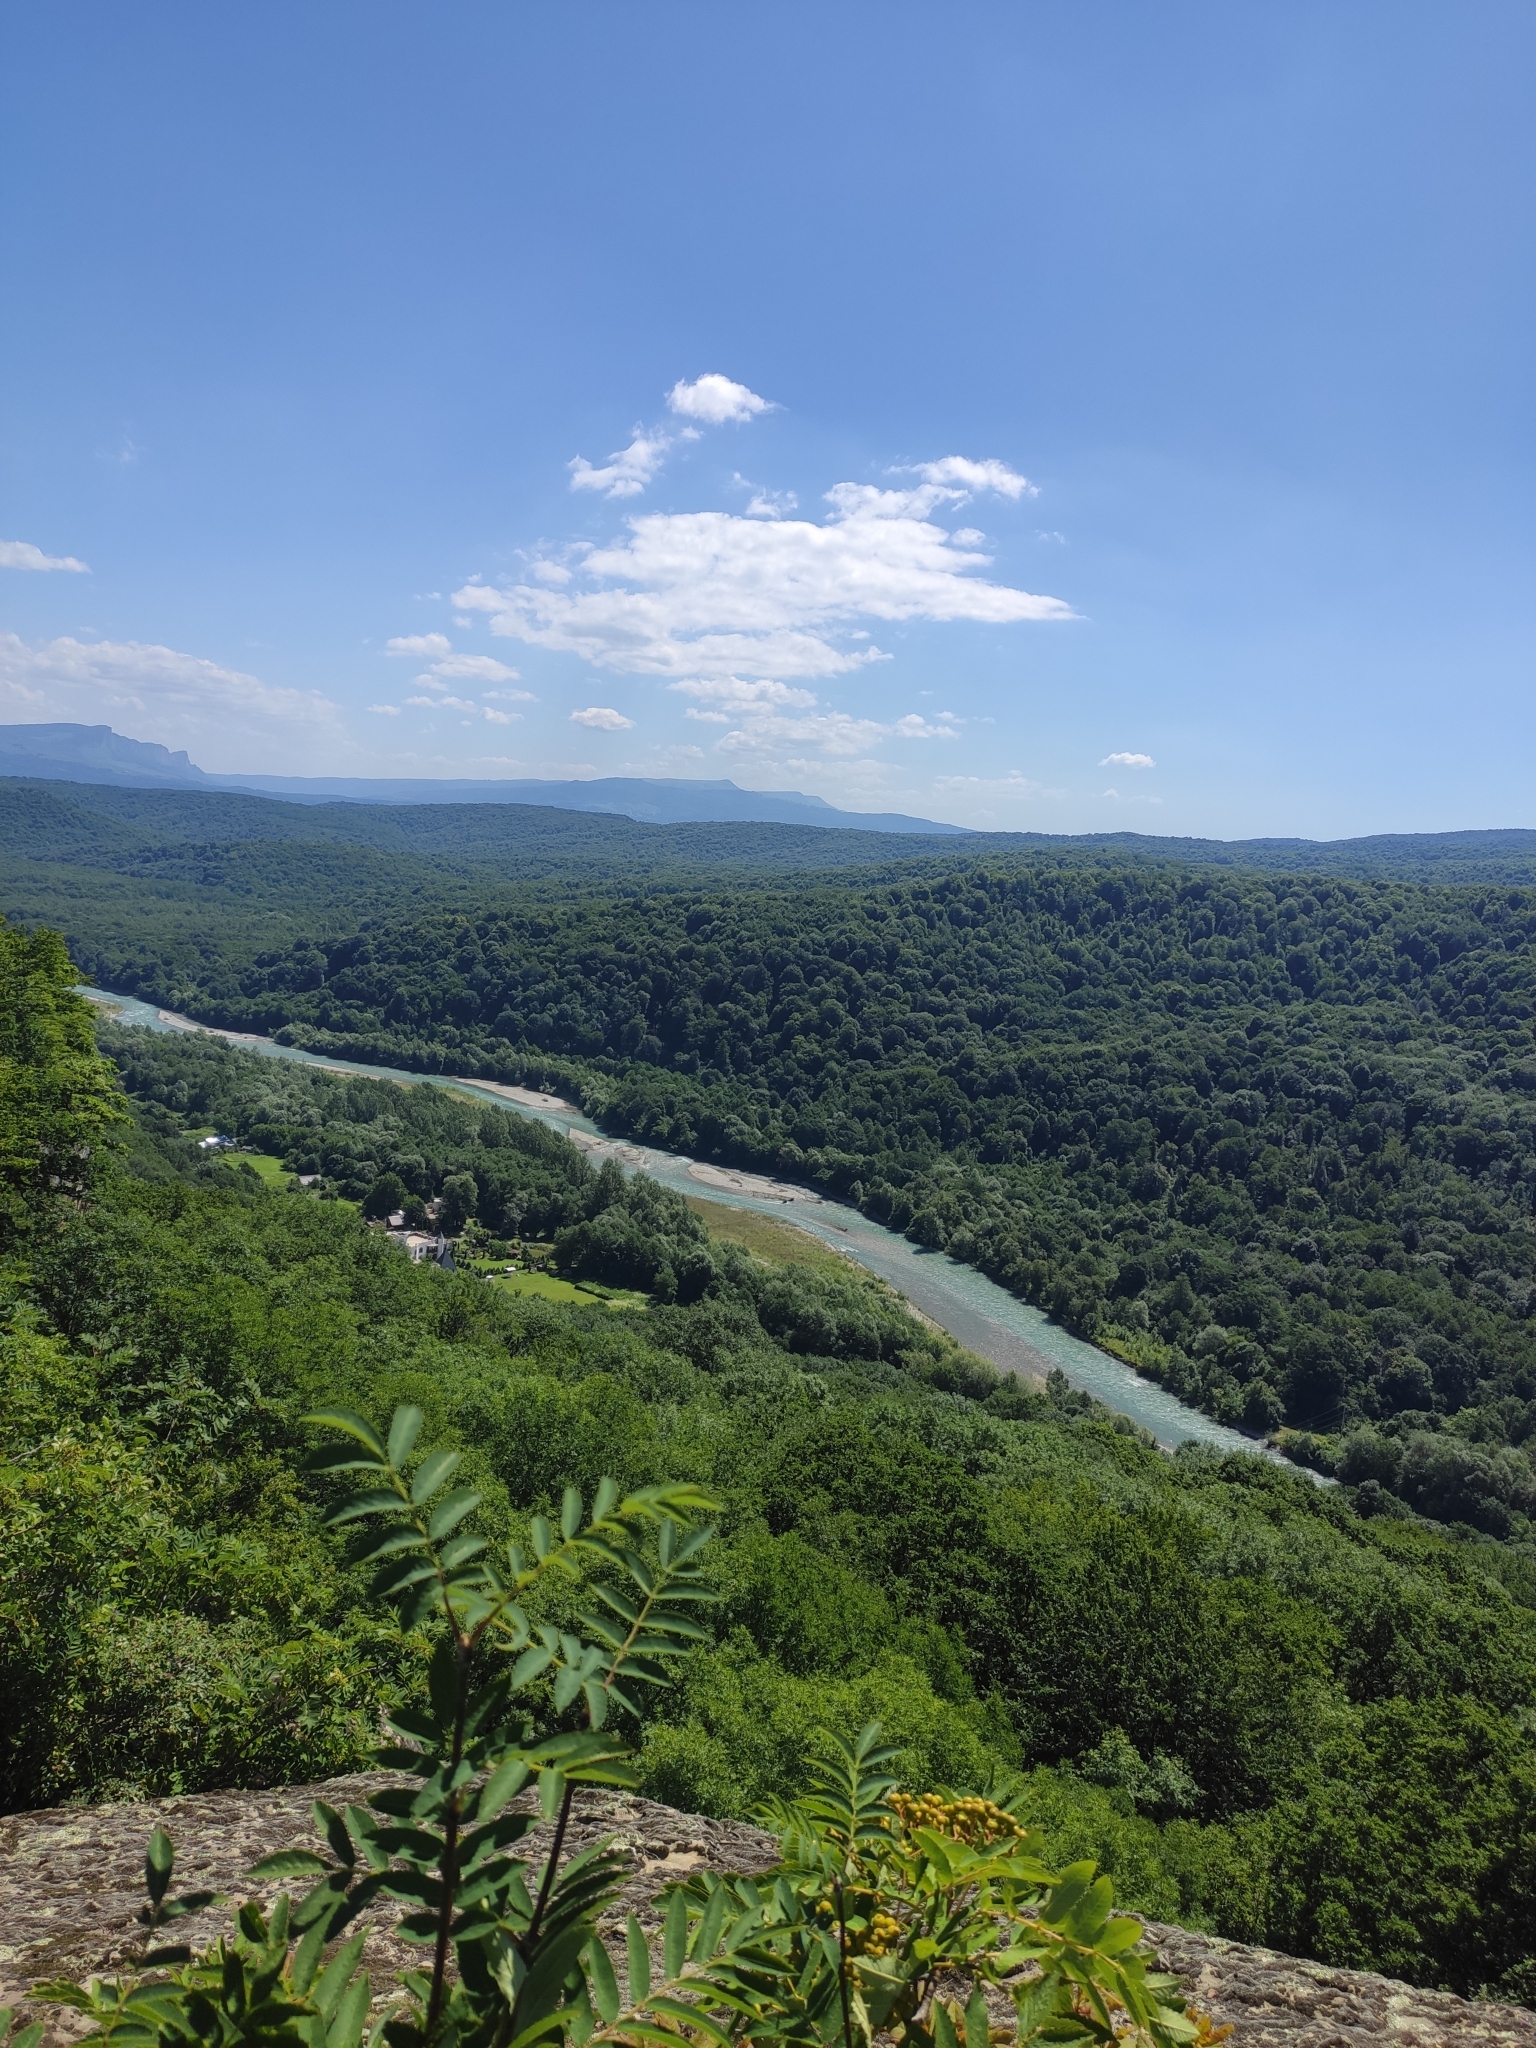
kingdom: Plantae
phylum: Tracheophyta
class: Magnoliopsida
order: Rosales
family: Rosaceae
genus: Sorbus
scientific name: Sorbus aucuparia
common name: Rowan
